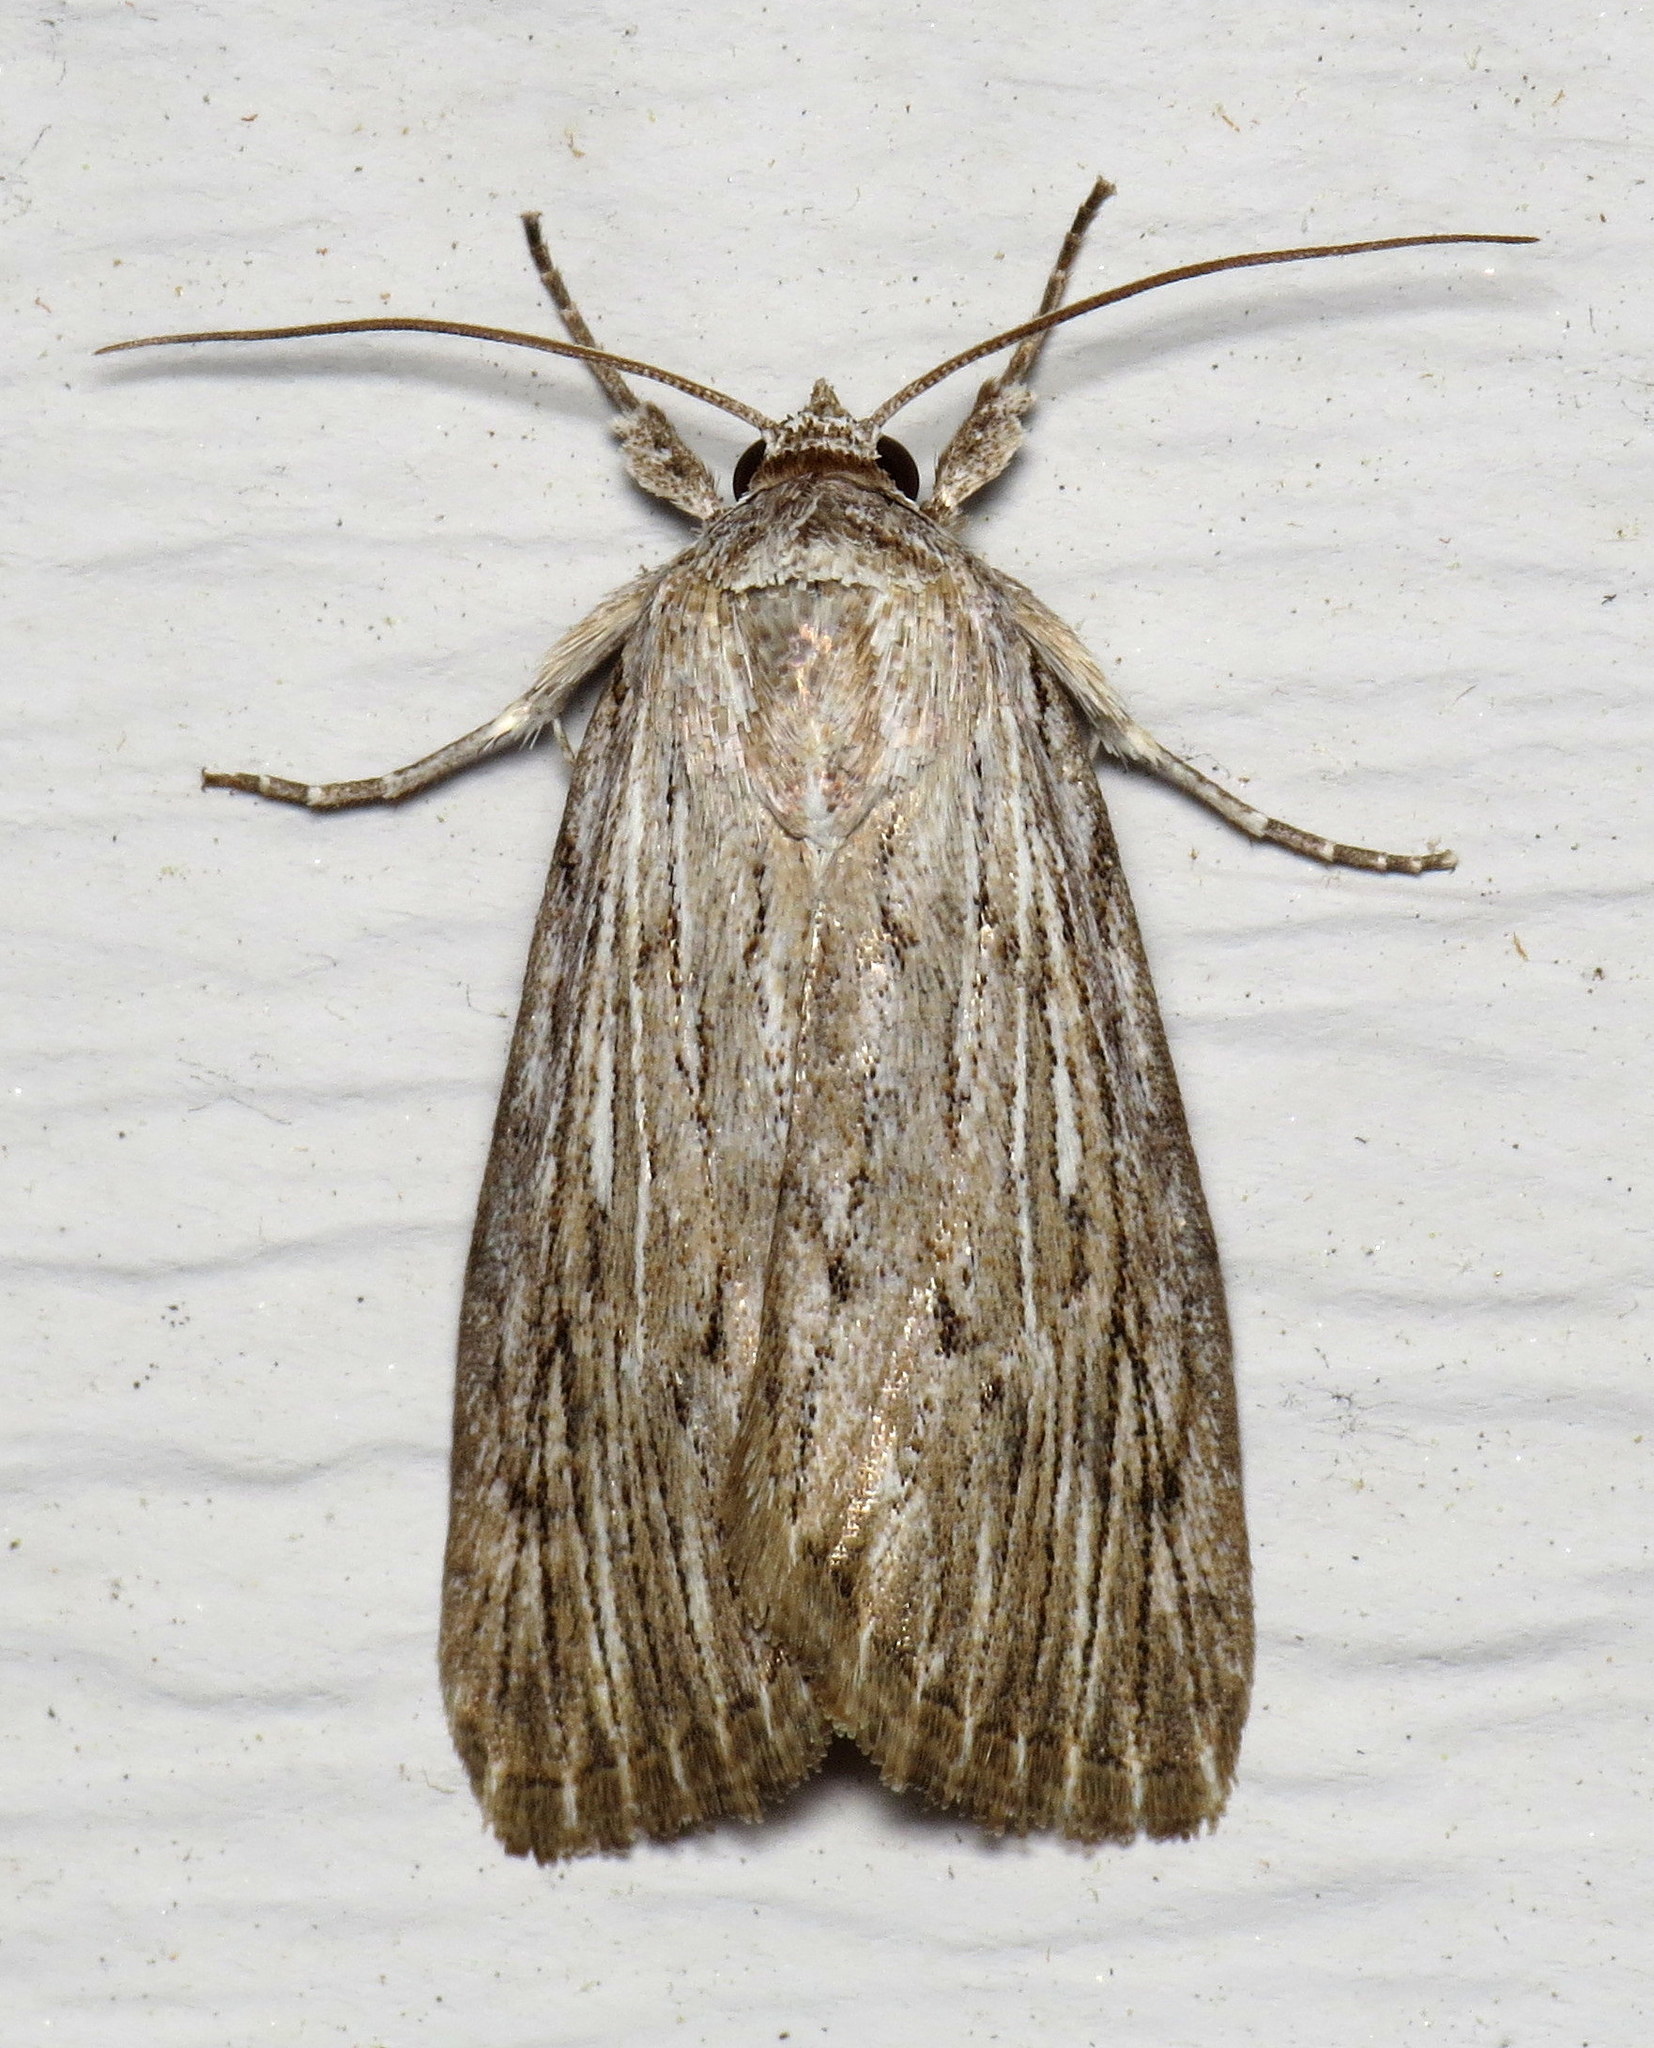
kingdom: Animalia
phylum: Arthropoda
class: Insecta
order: Lepidoptera
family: Noctuidae
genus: Catabena
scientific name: Catabena lineolata
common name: Fine-lined sallow
